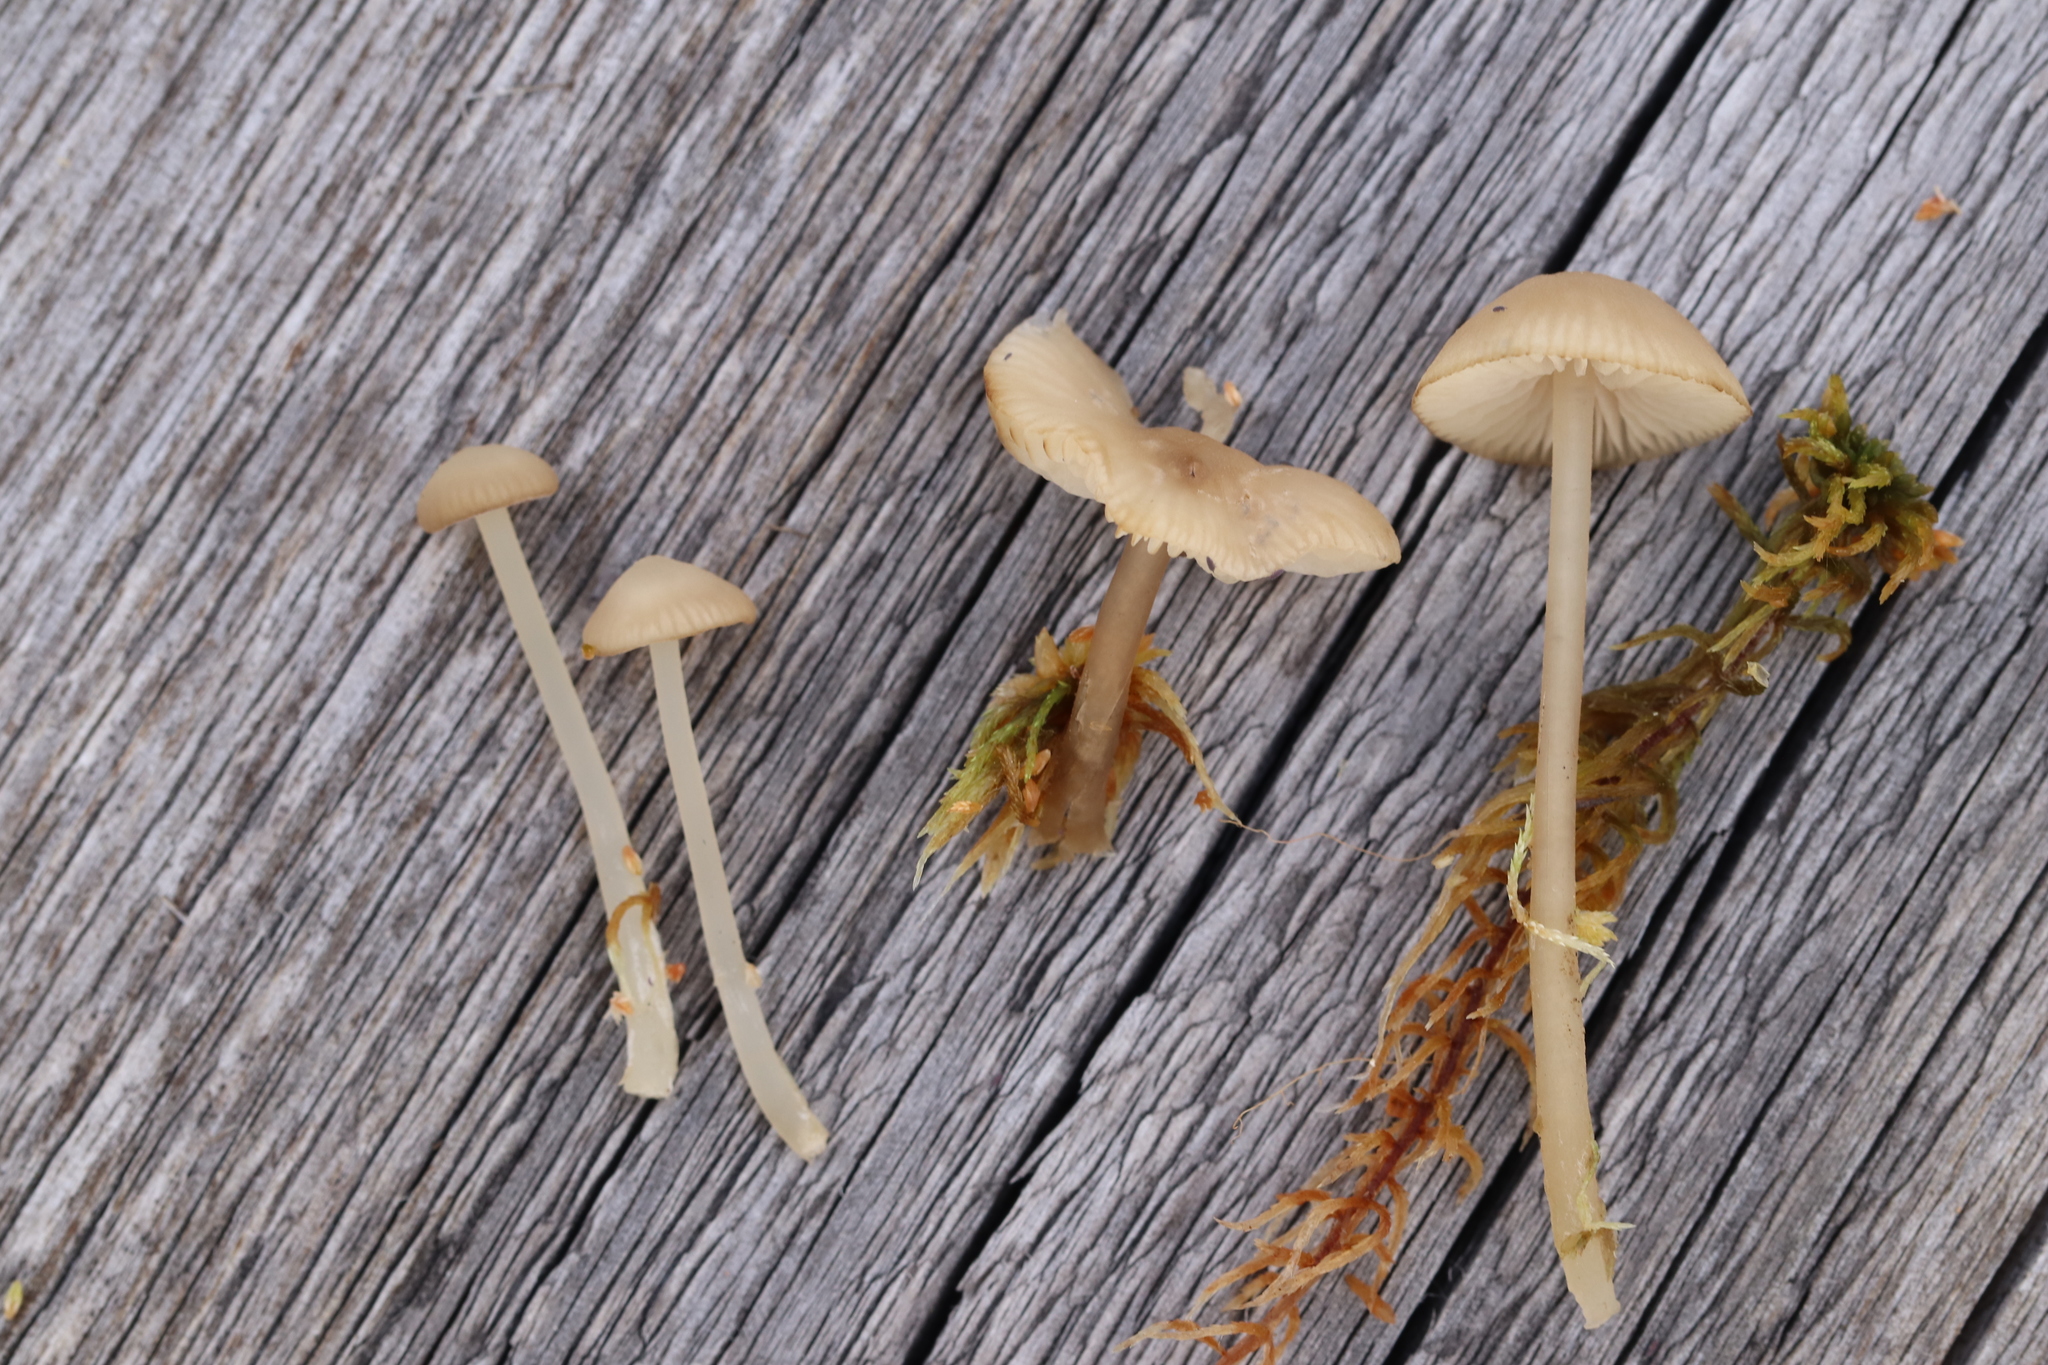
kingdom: Fungi
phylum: Basidiomycota
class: Agaricomycetes
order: Agaricales
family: Lyophyllaceae
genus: Sphagnurus
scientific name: Sphagnurus paluster
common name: Sphagnum greyling
